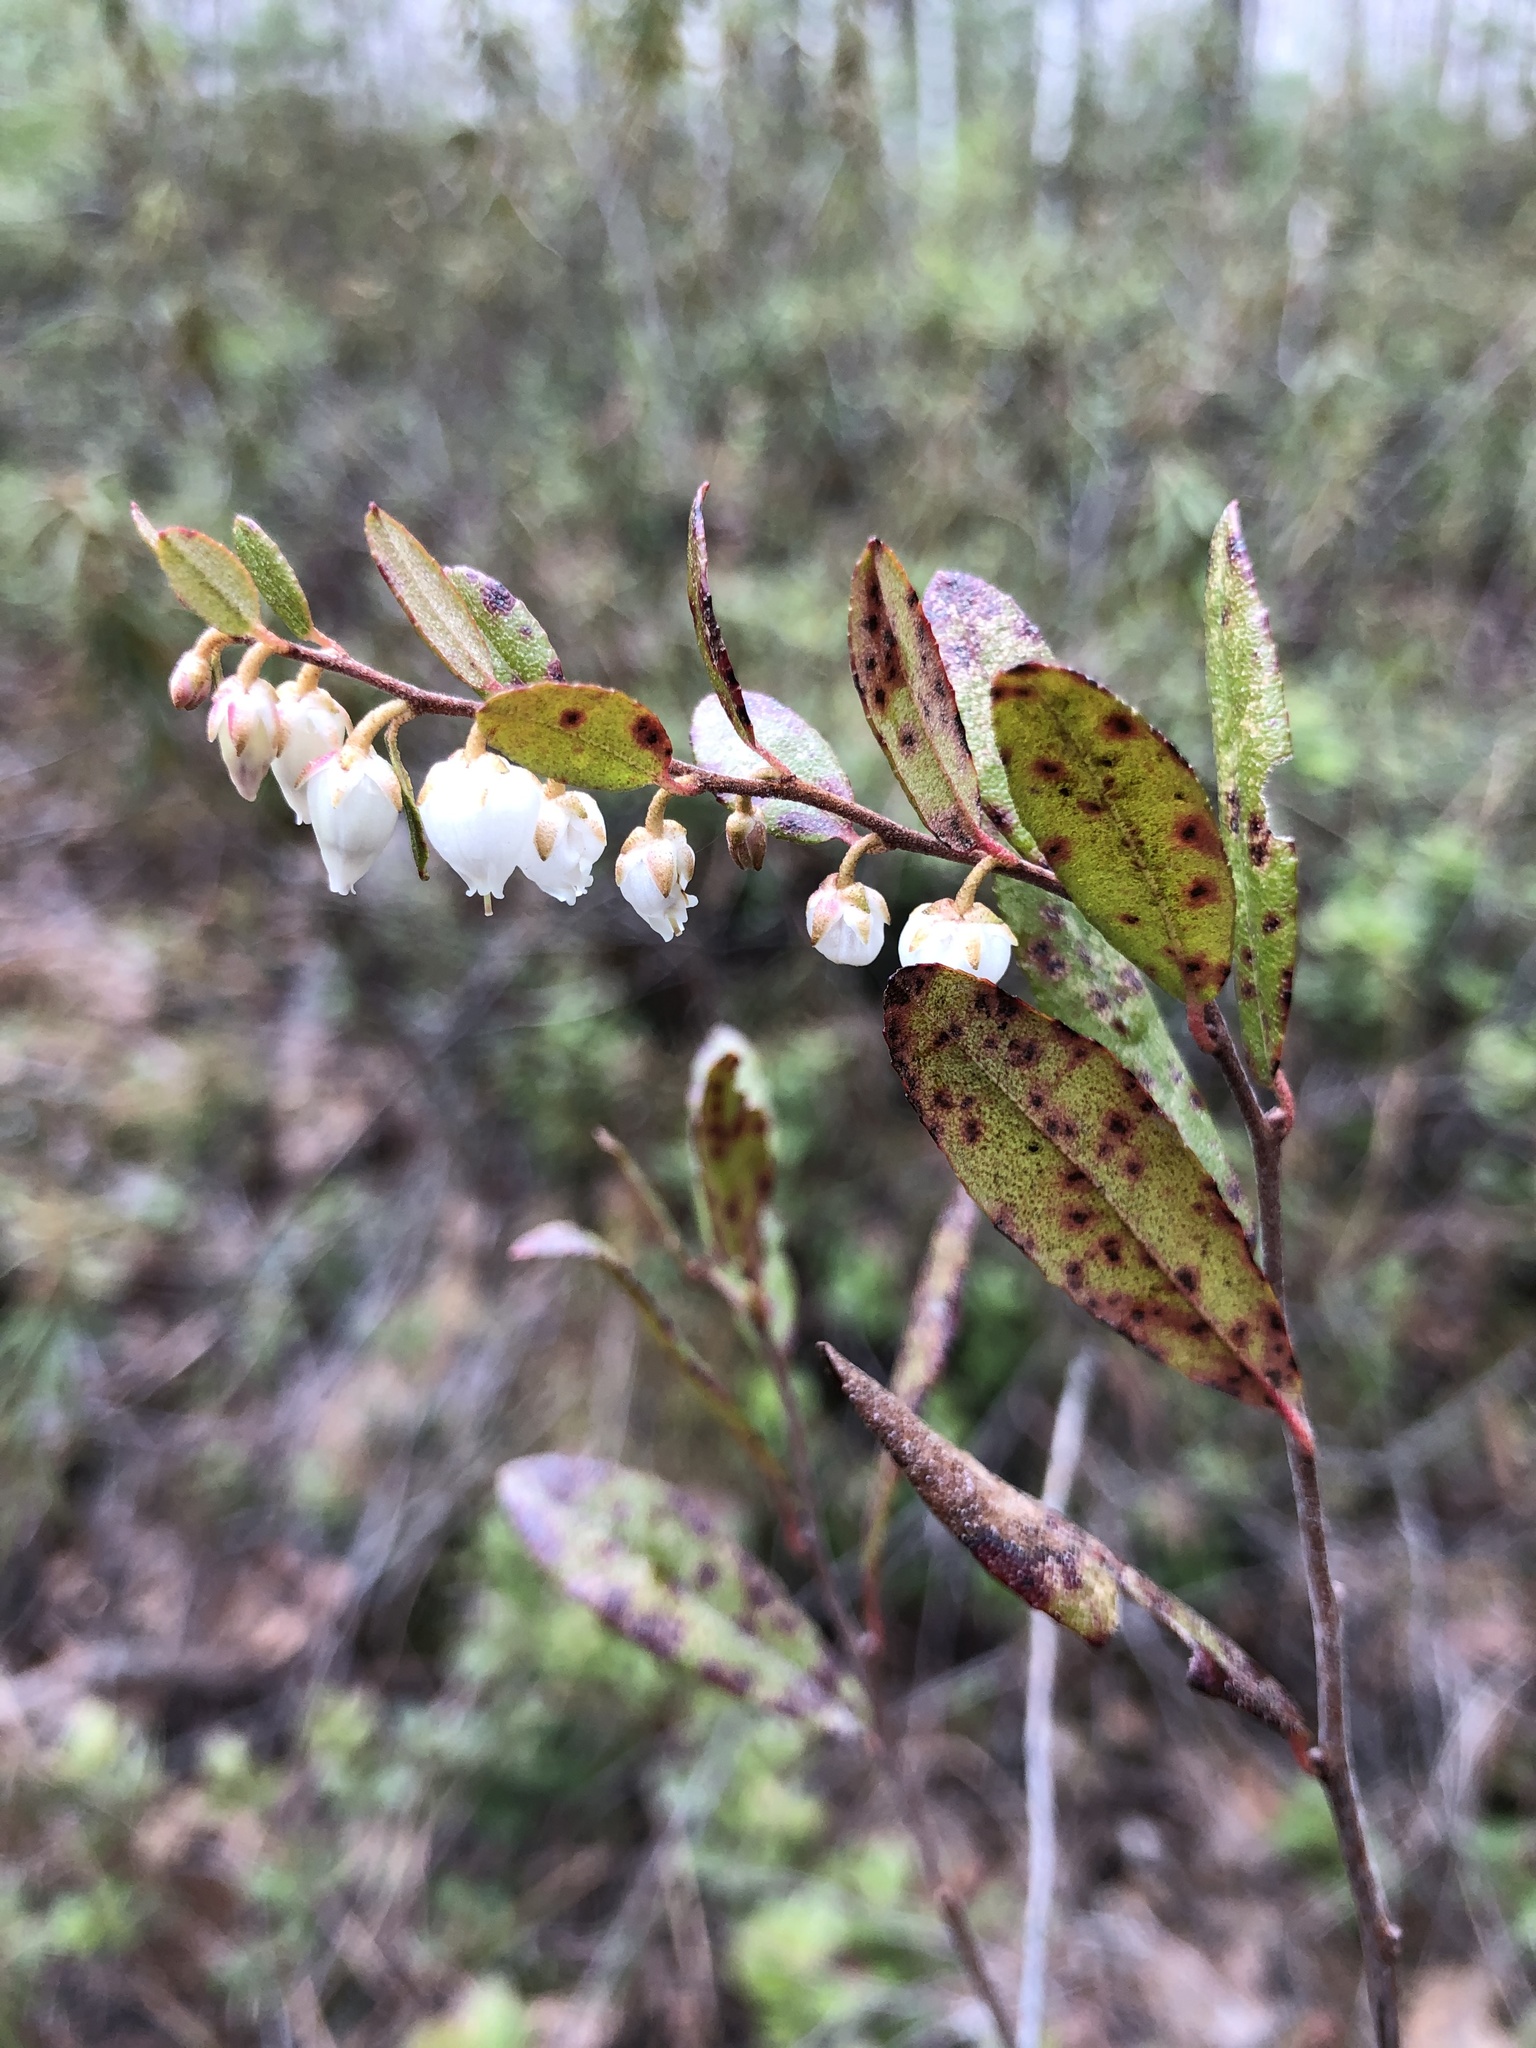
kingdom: Plantae
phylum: Tracheophyta
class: Magnoliopsida
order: Ericales
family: Ericaceae
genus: Chamaedaphne
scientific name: Chamaedaphne calyculata
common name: Leatherleaf
